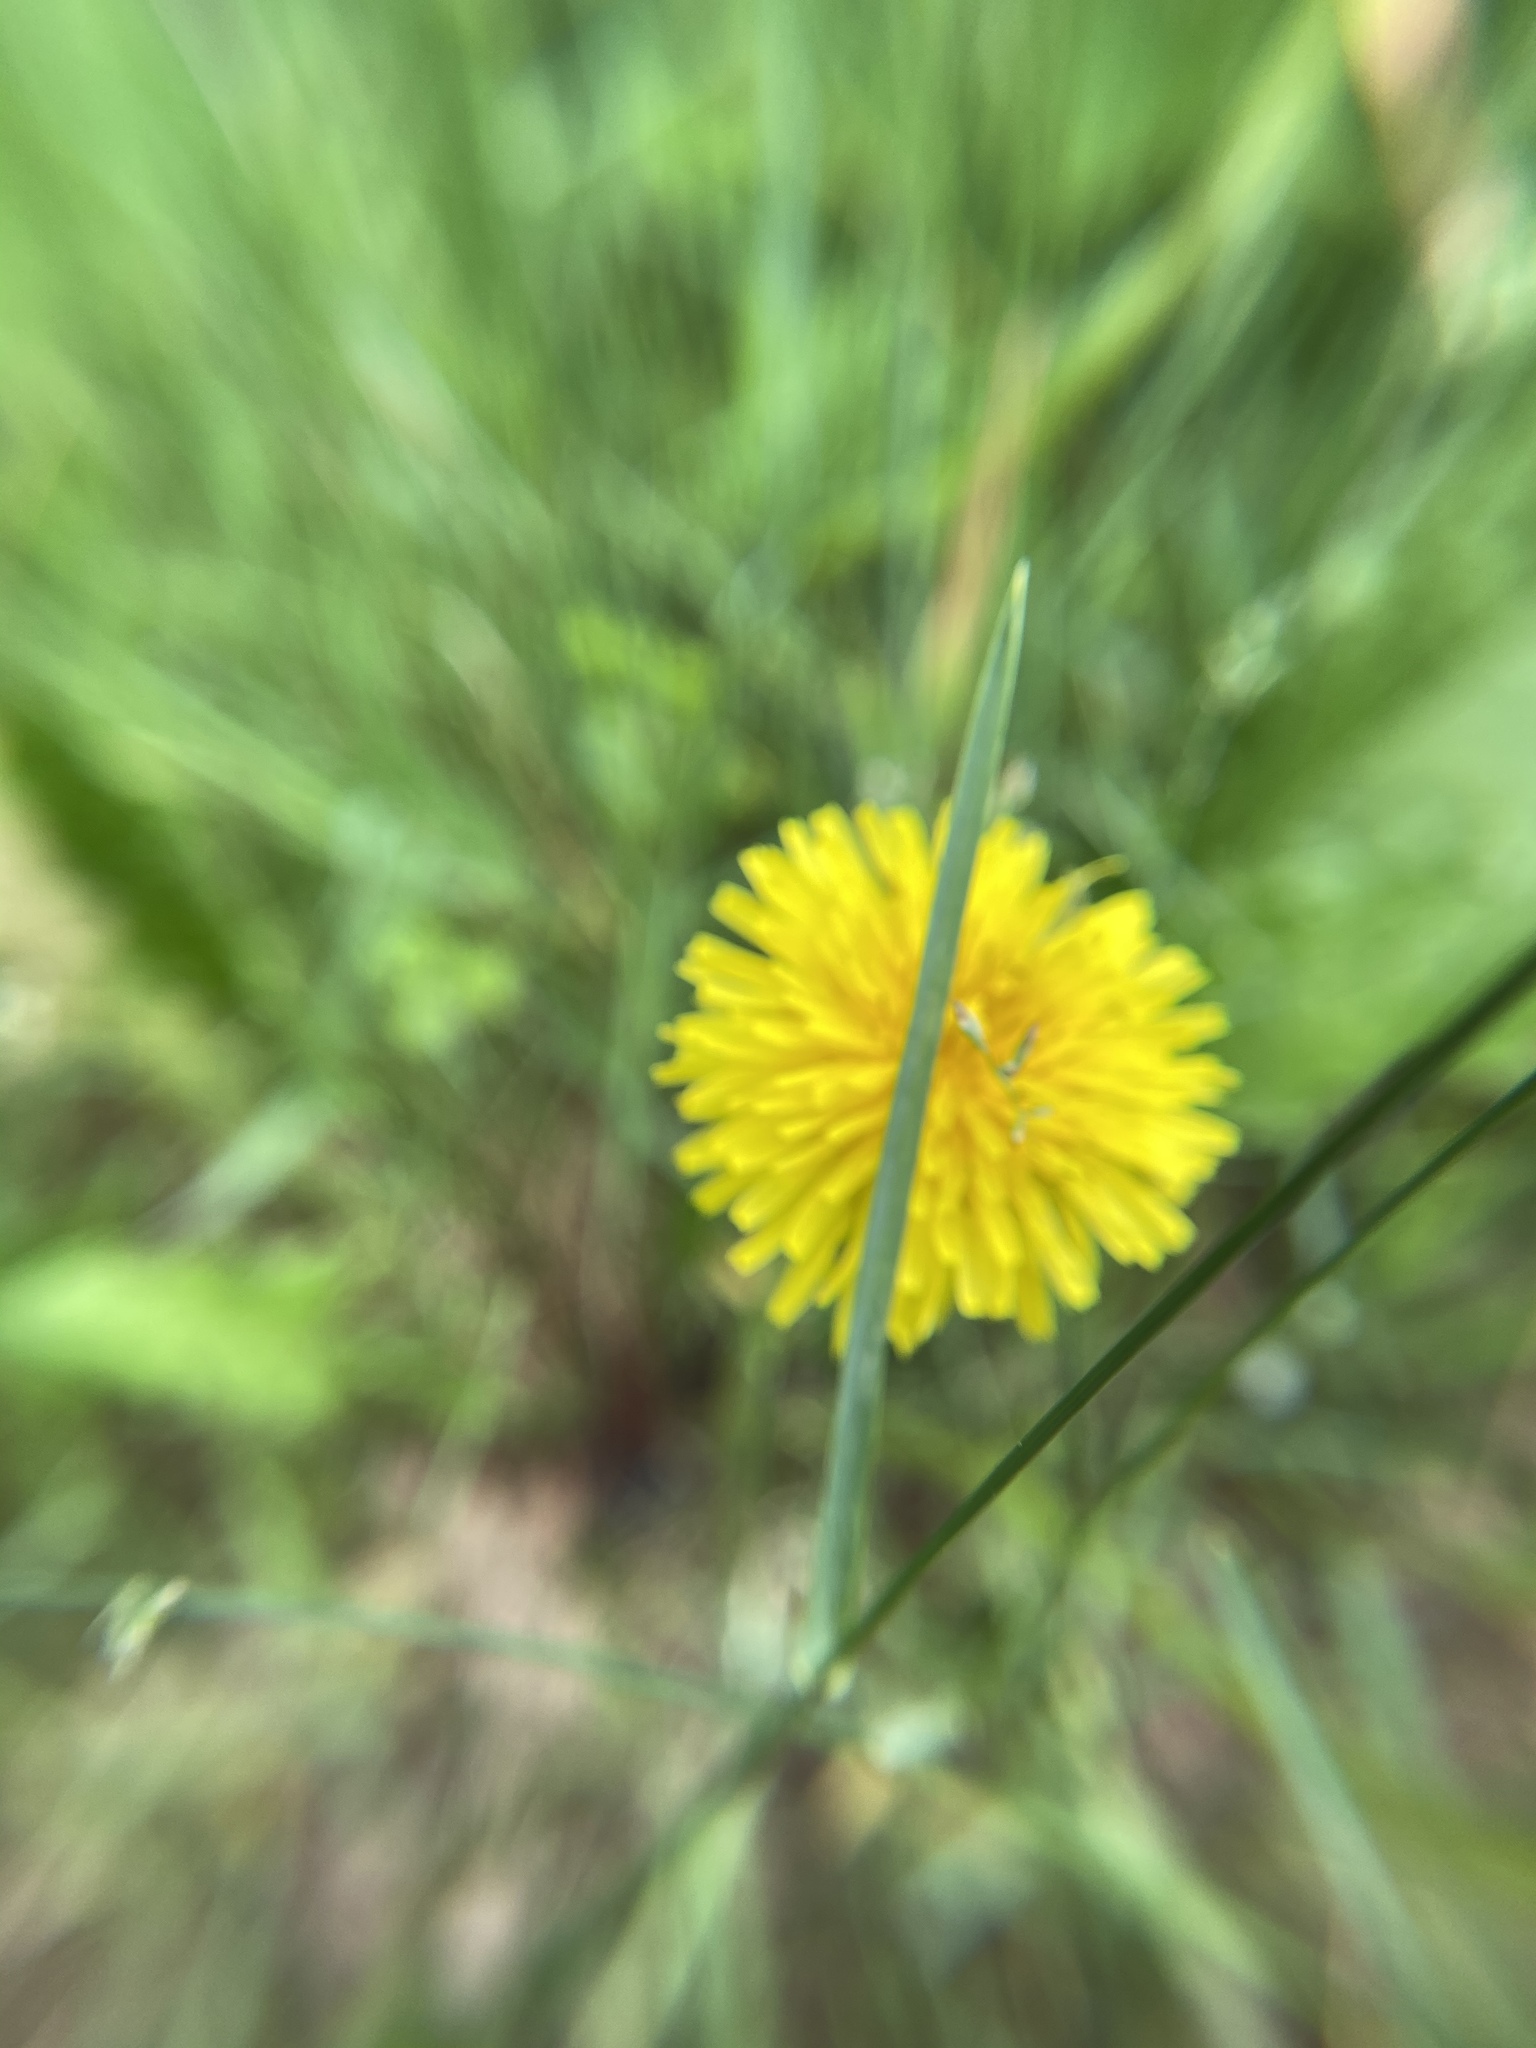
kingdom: Plantae
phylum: Tracheophyta
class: Magnoliopsida
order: Asterales
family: Asteraceae
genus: Taraxacum
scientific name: Taraxacum officinale
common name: Common dandelion
